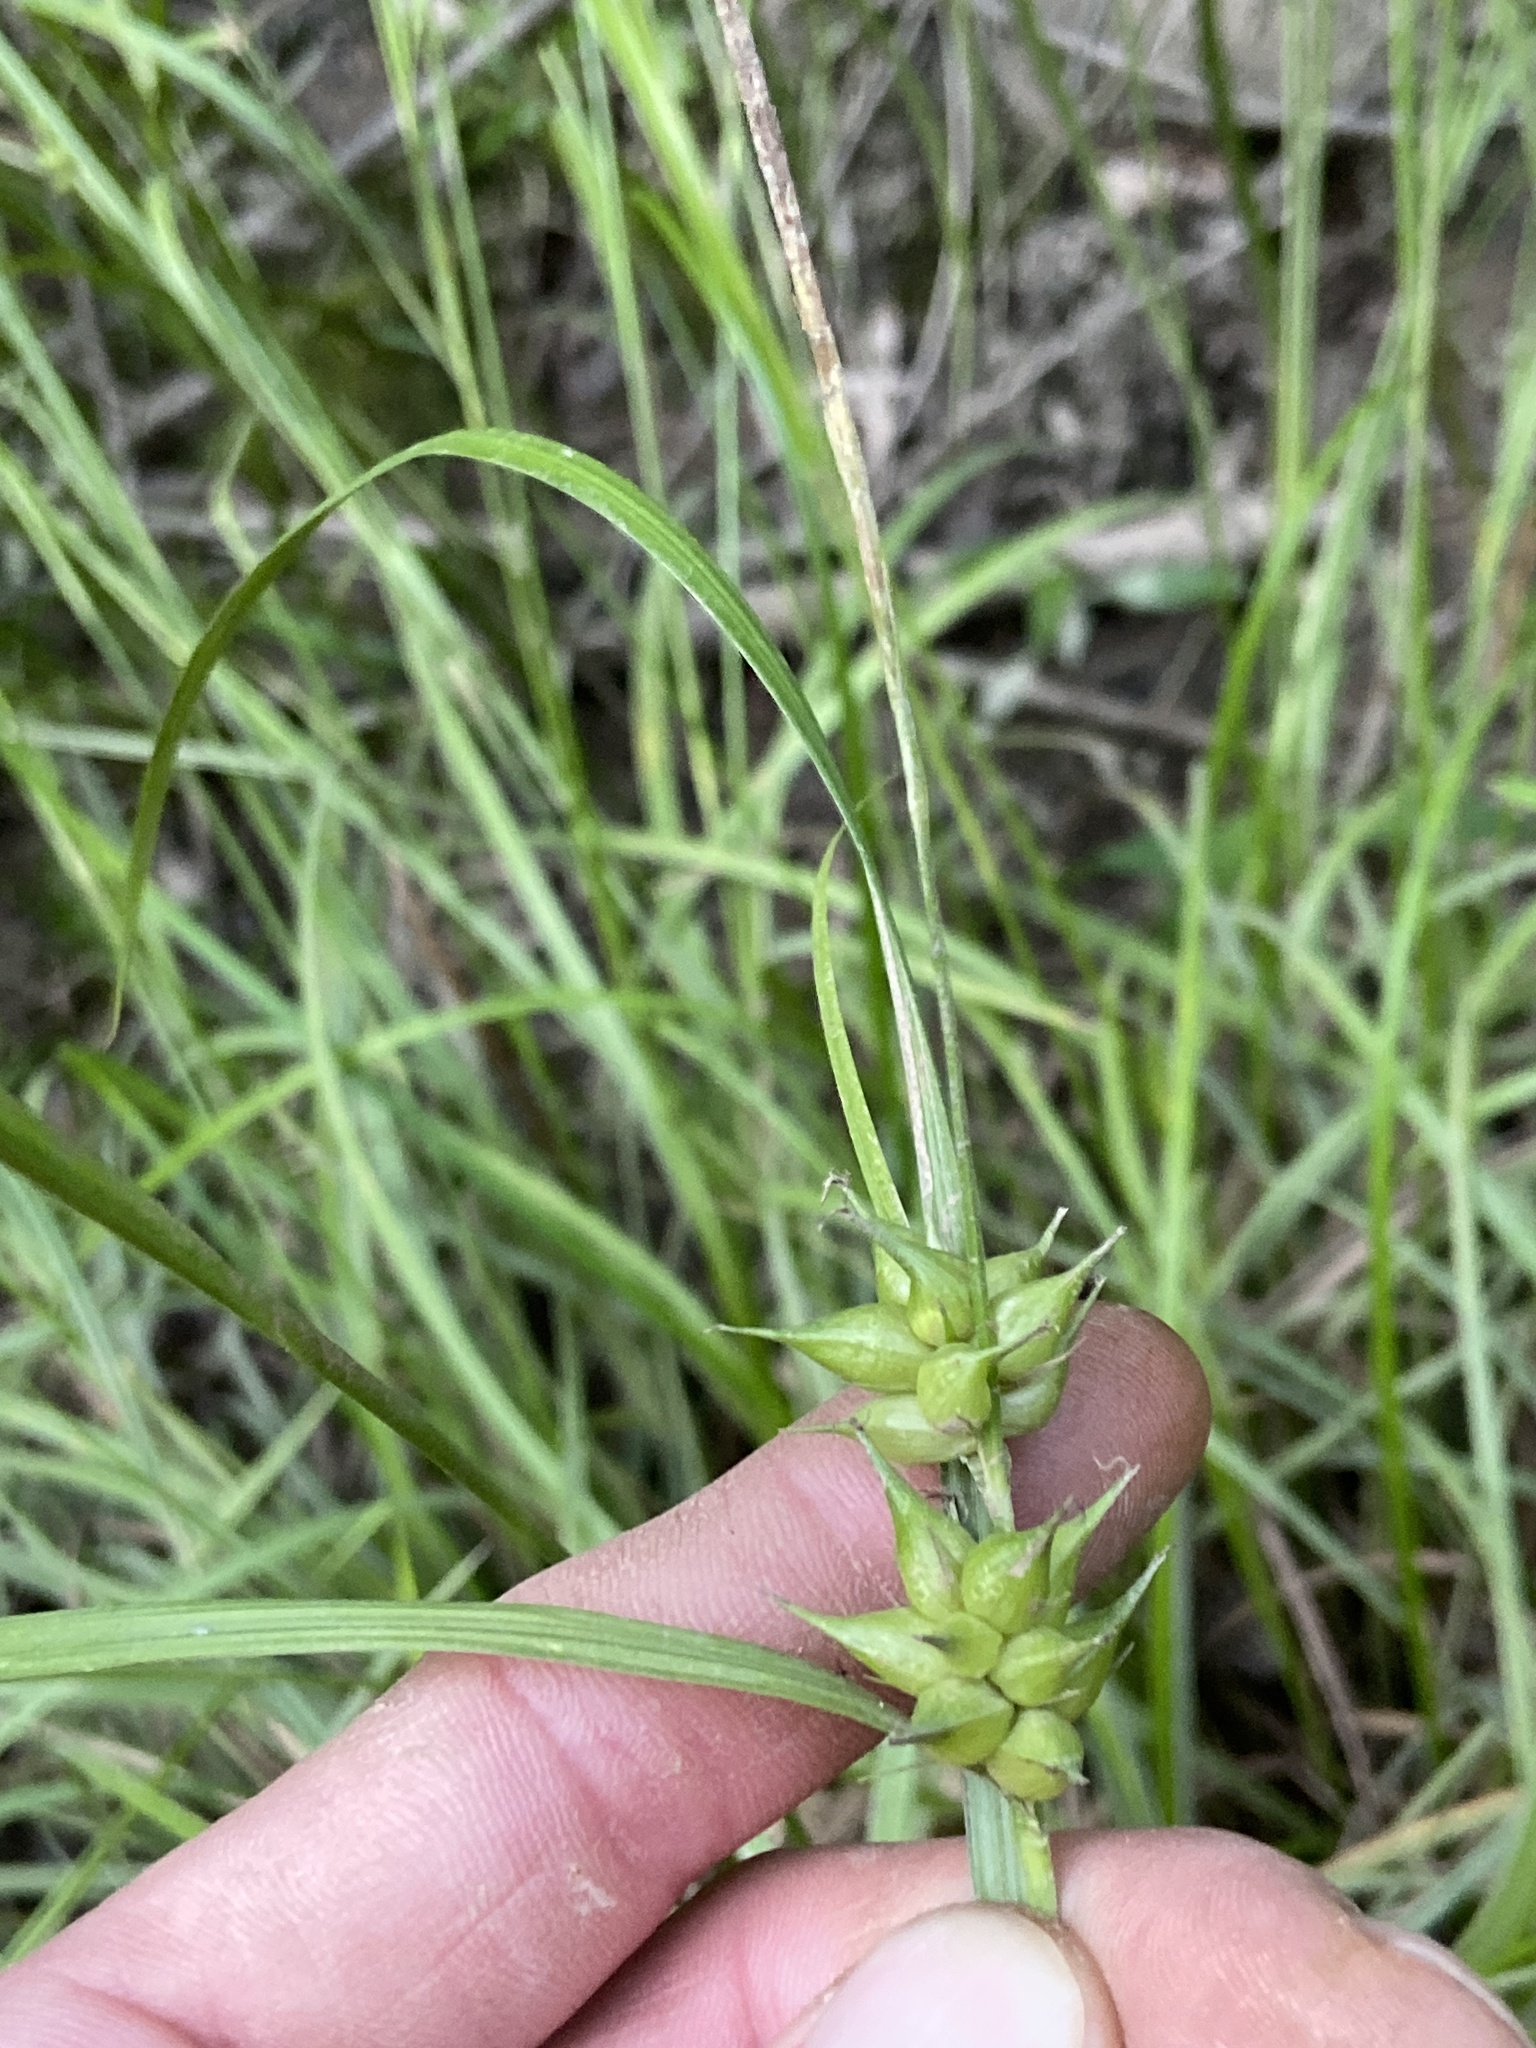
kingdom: Plantae
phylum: Tracheophyta
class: Liliopsida
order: Poales
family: Cyperaceae
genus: Carex
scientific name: Carex intumescens
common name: Greater bladder sedge
